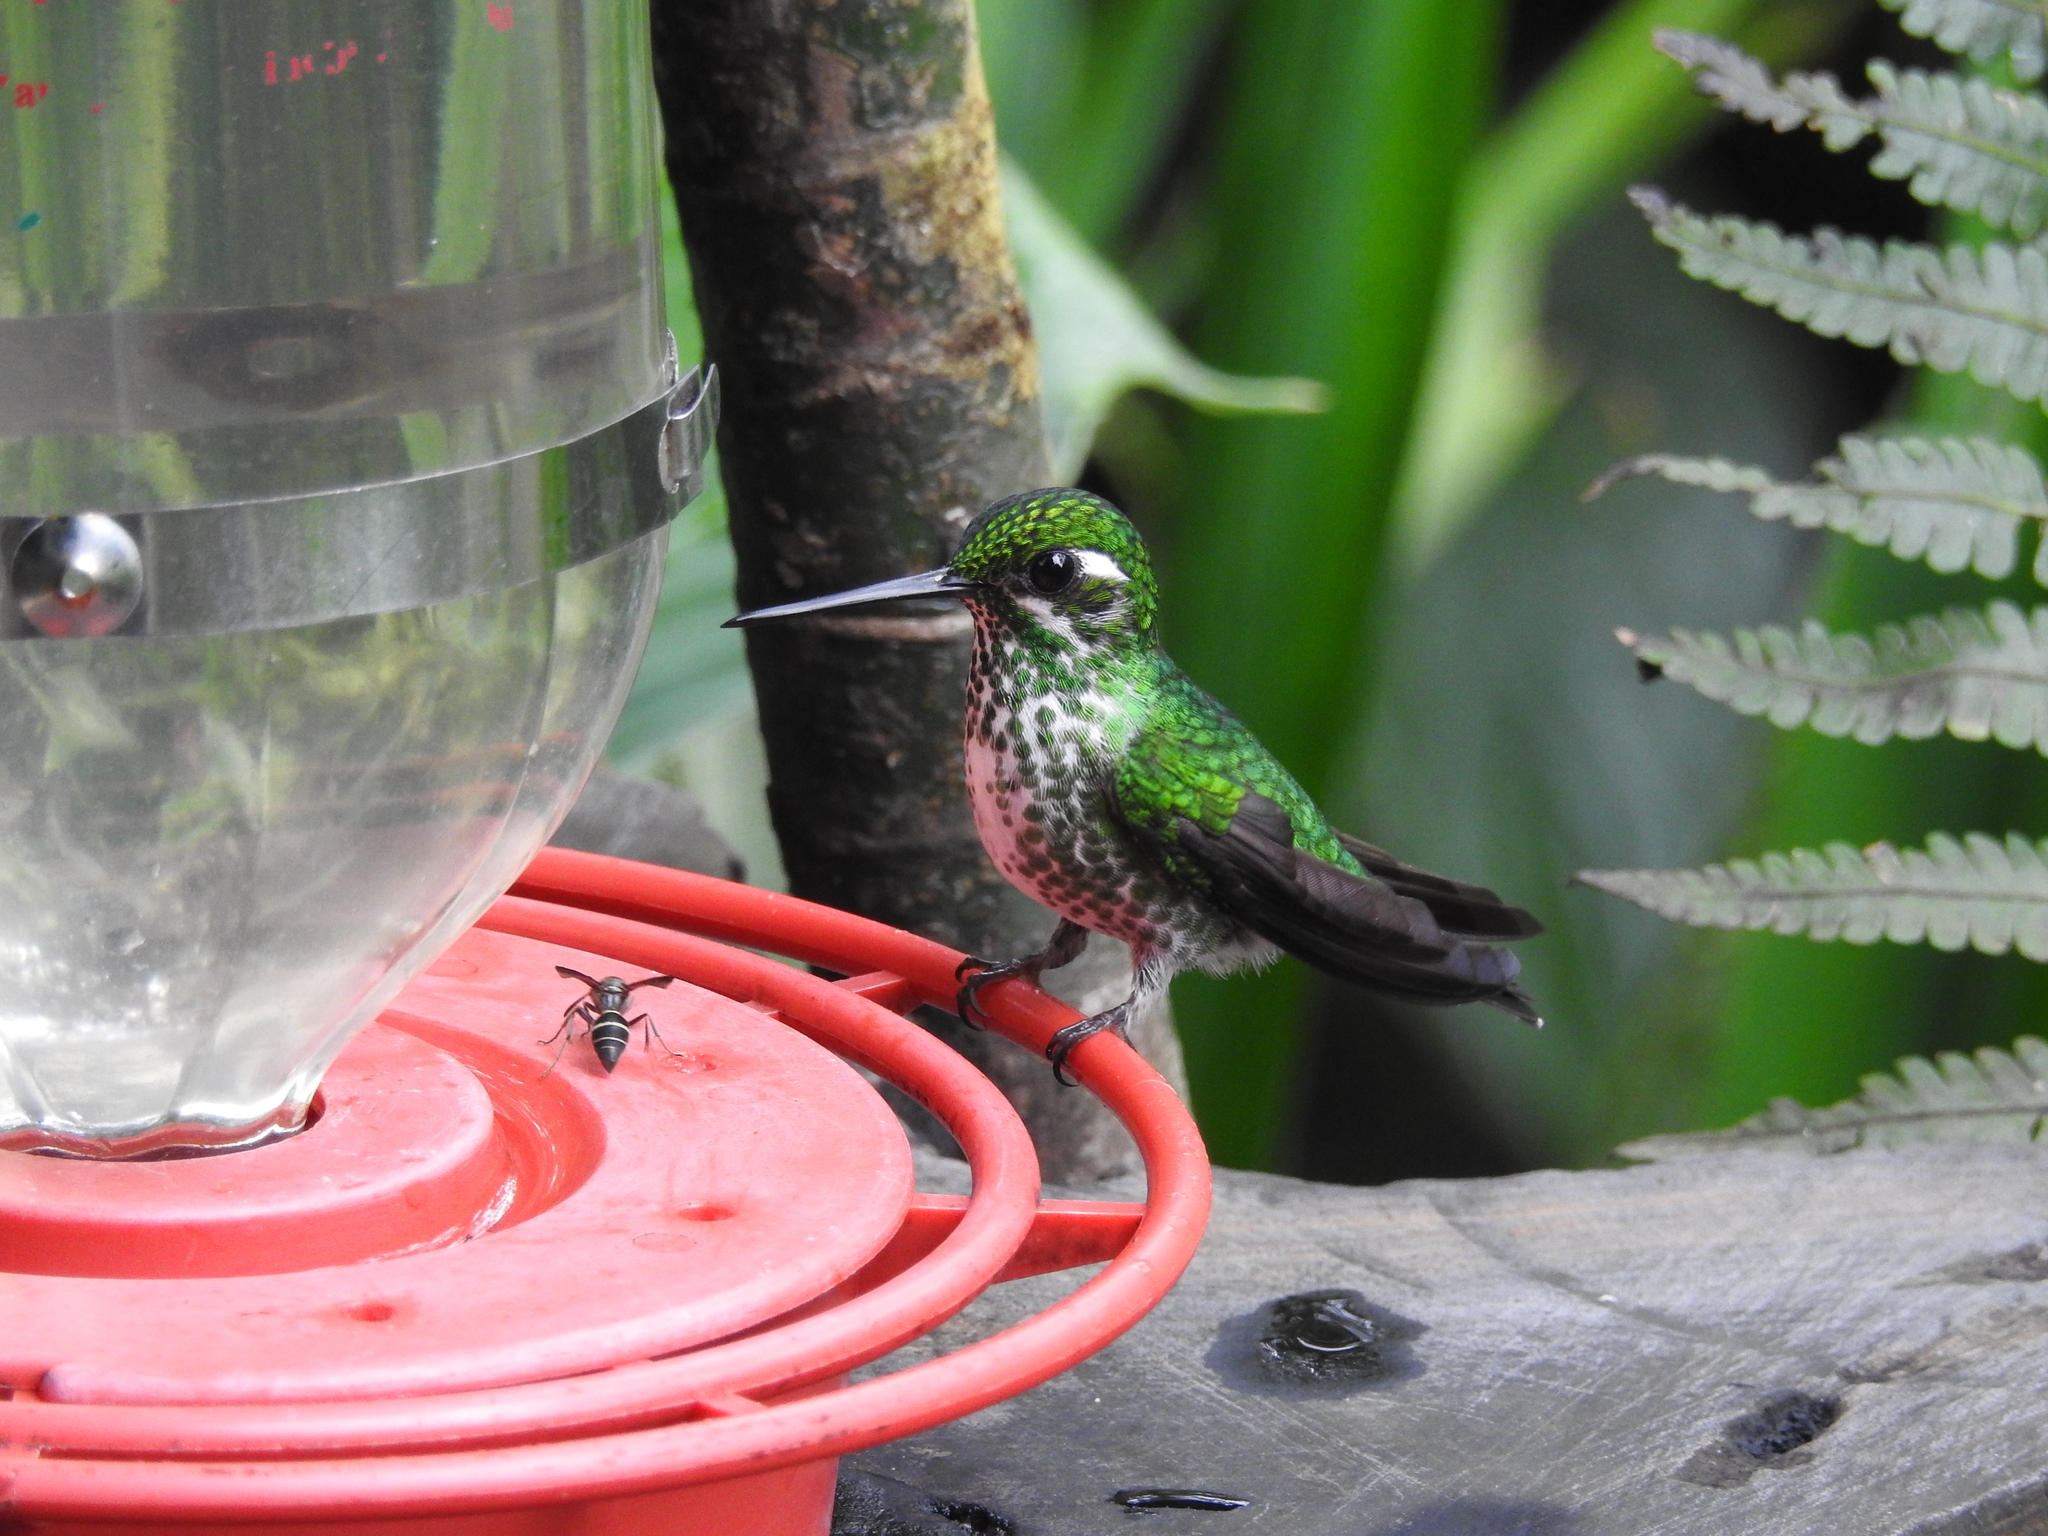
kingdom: Animalia
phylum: Chordata
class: Aves
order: Apodiformes
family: Trochilidae
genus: Urosticte
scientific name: Urosticte benjamini
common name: Purple-bibbed whitetip
